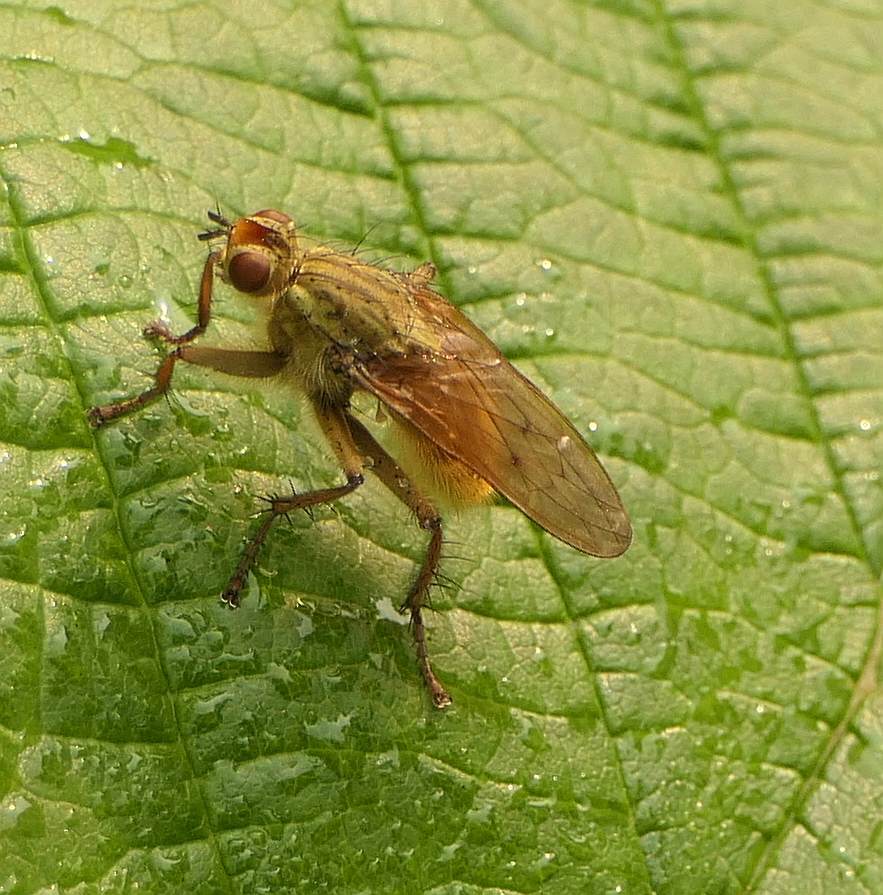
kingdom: Animalia
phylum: Arthropoda
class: Insecta
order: Diptera
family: Scathophagidae
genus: Scathophaga
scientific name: Scathophaga stercoraria
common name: Yellow dung fly
